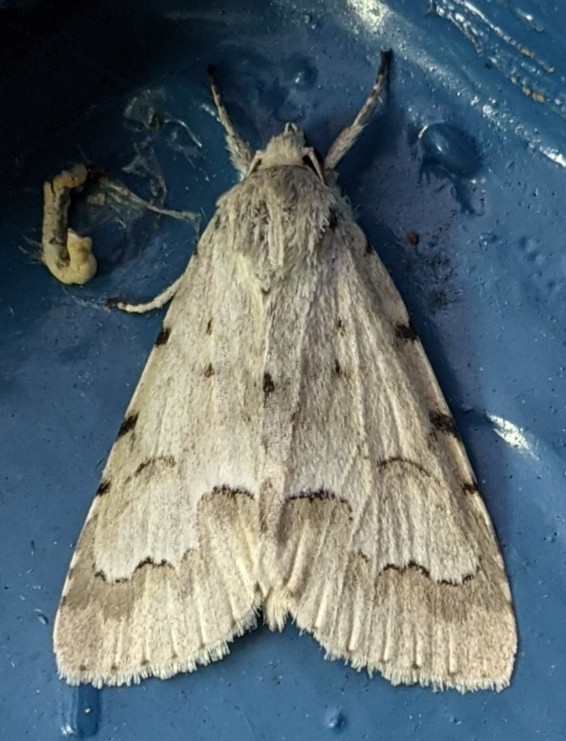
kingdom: Animalia
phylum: Arthropoda
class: Insecta
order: Lepidoptera
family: Noctuidae
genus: Acronicta
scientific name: Acronicta innotata
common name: Unmarked dagger
